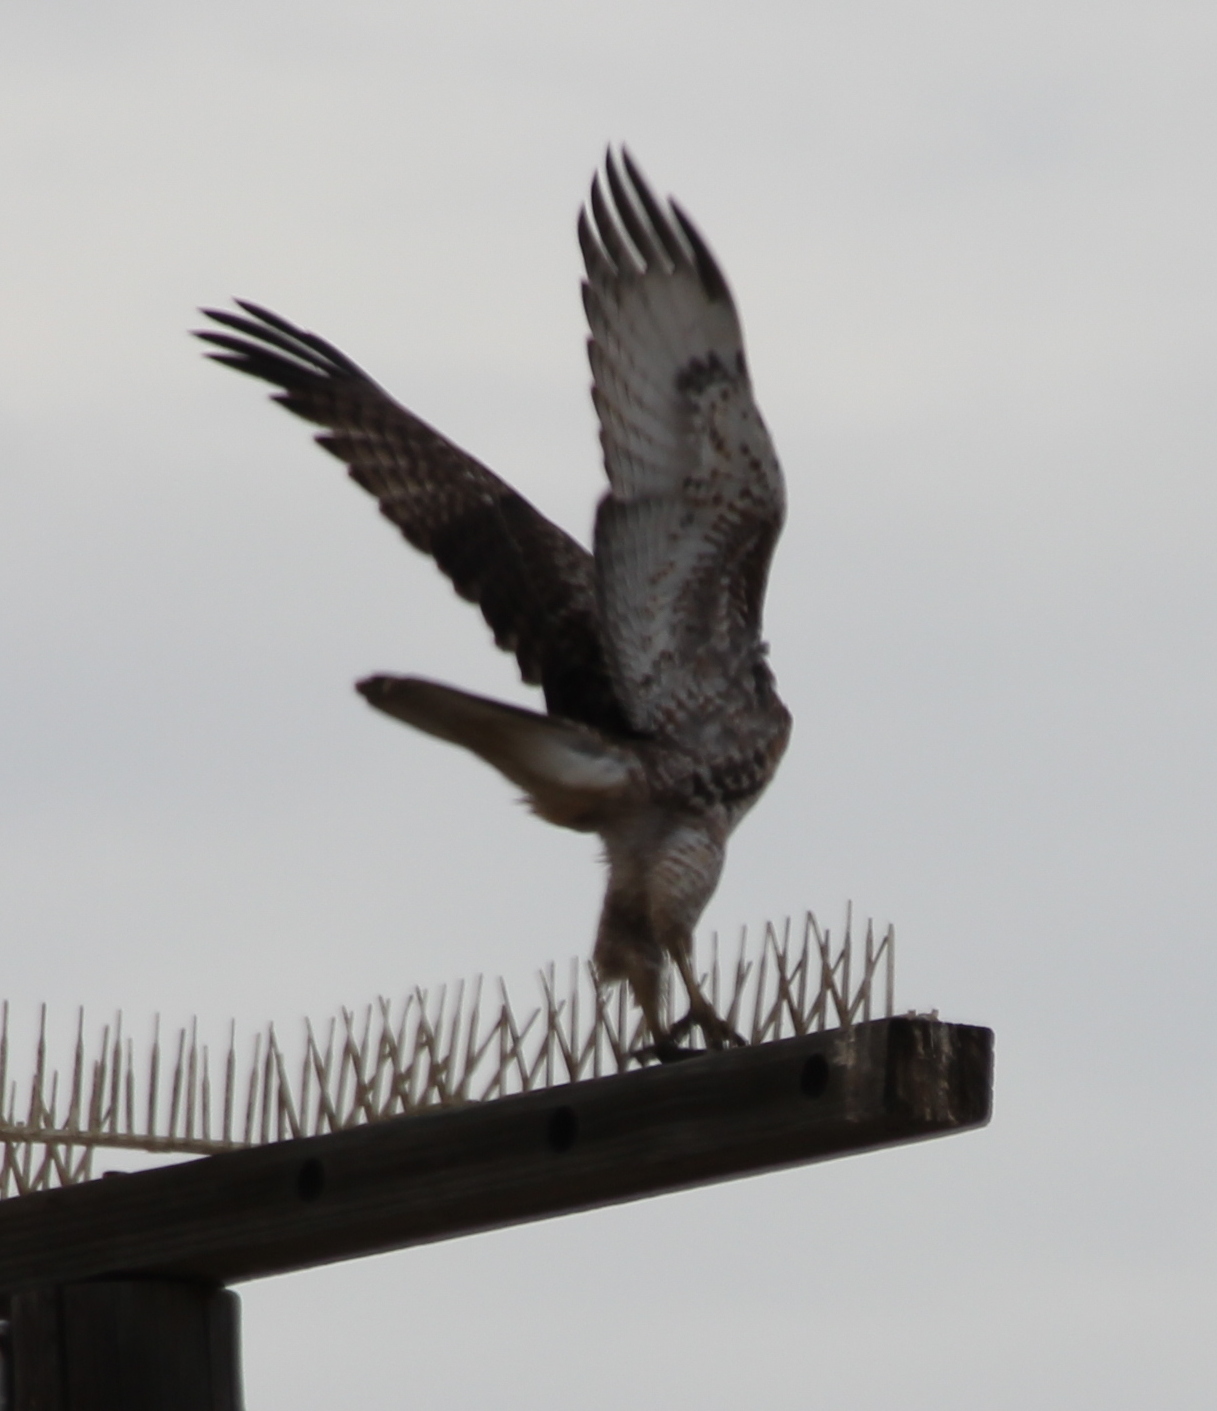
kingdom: Animalia
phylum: Chordata
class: Aves
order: Accipitriformes
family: Accipitridae
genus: Buteo
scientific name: Buteo jamaicensis
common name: Red-tailed hawk
